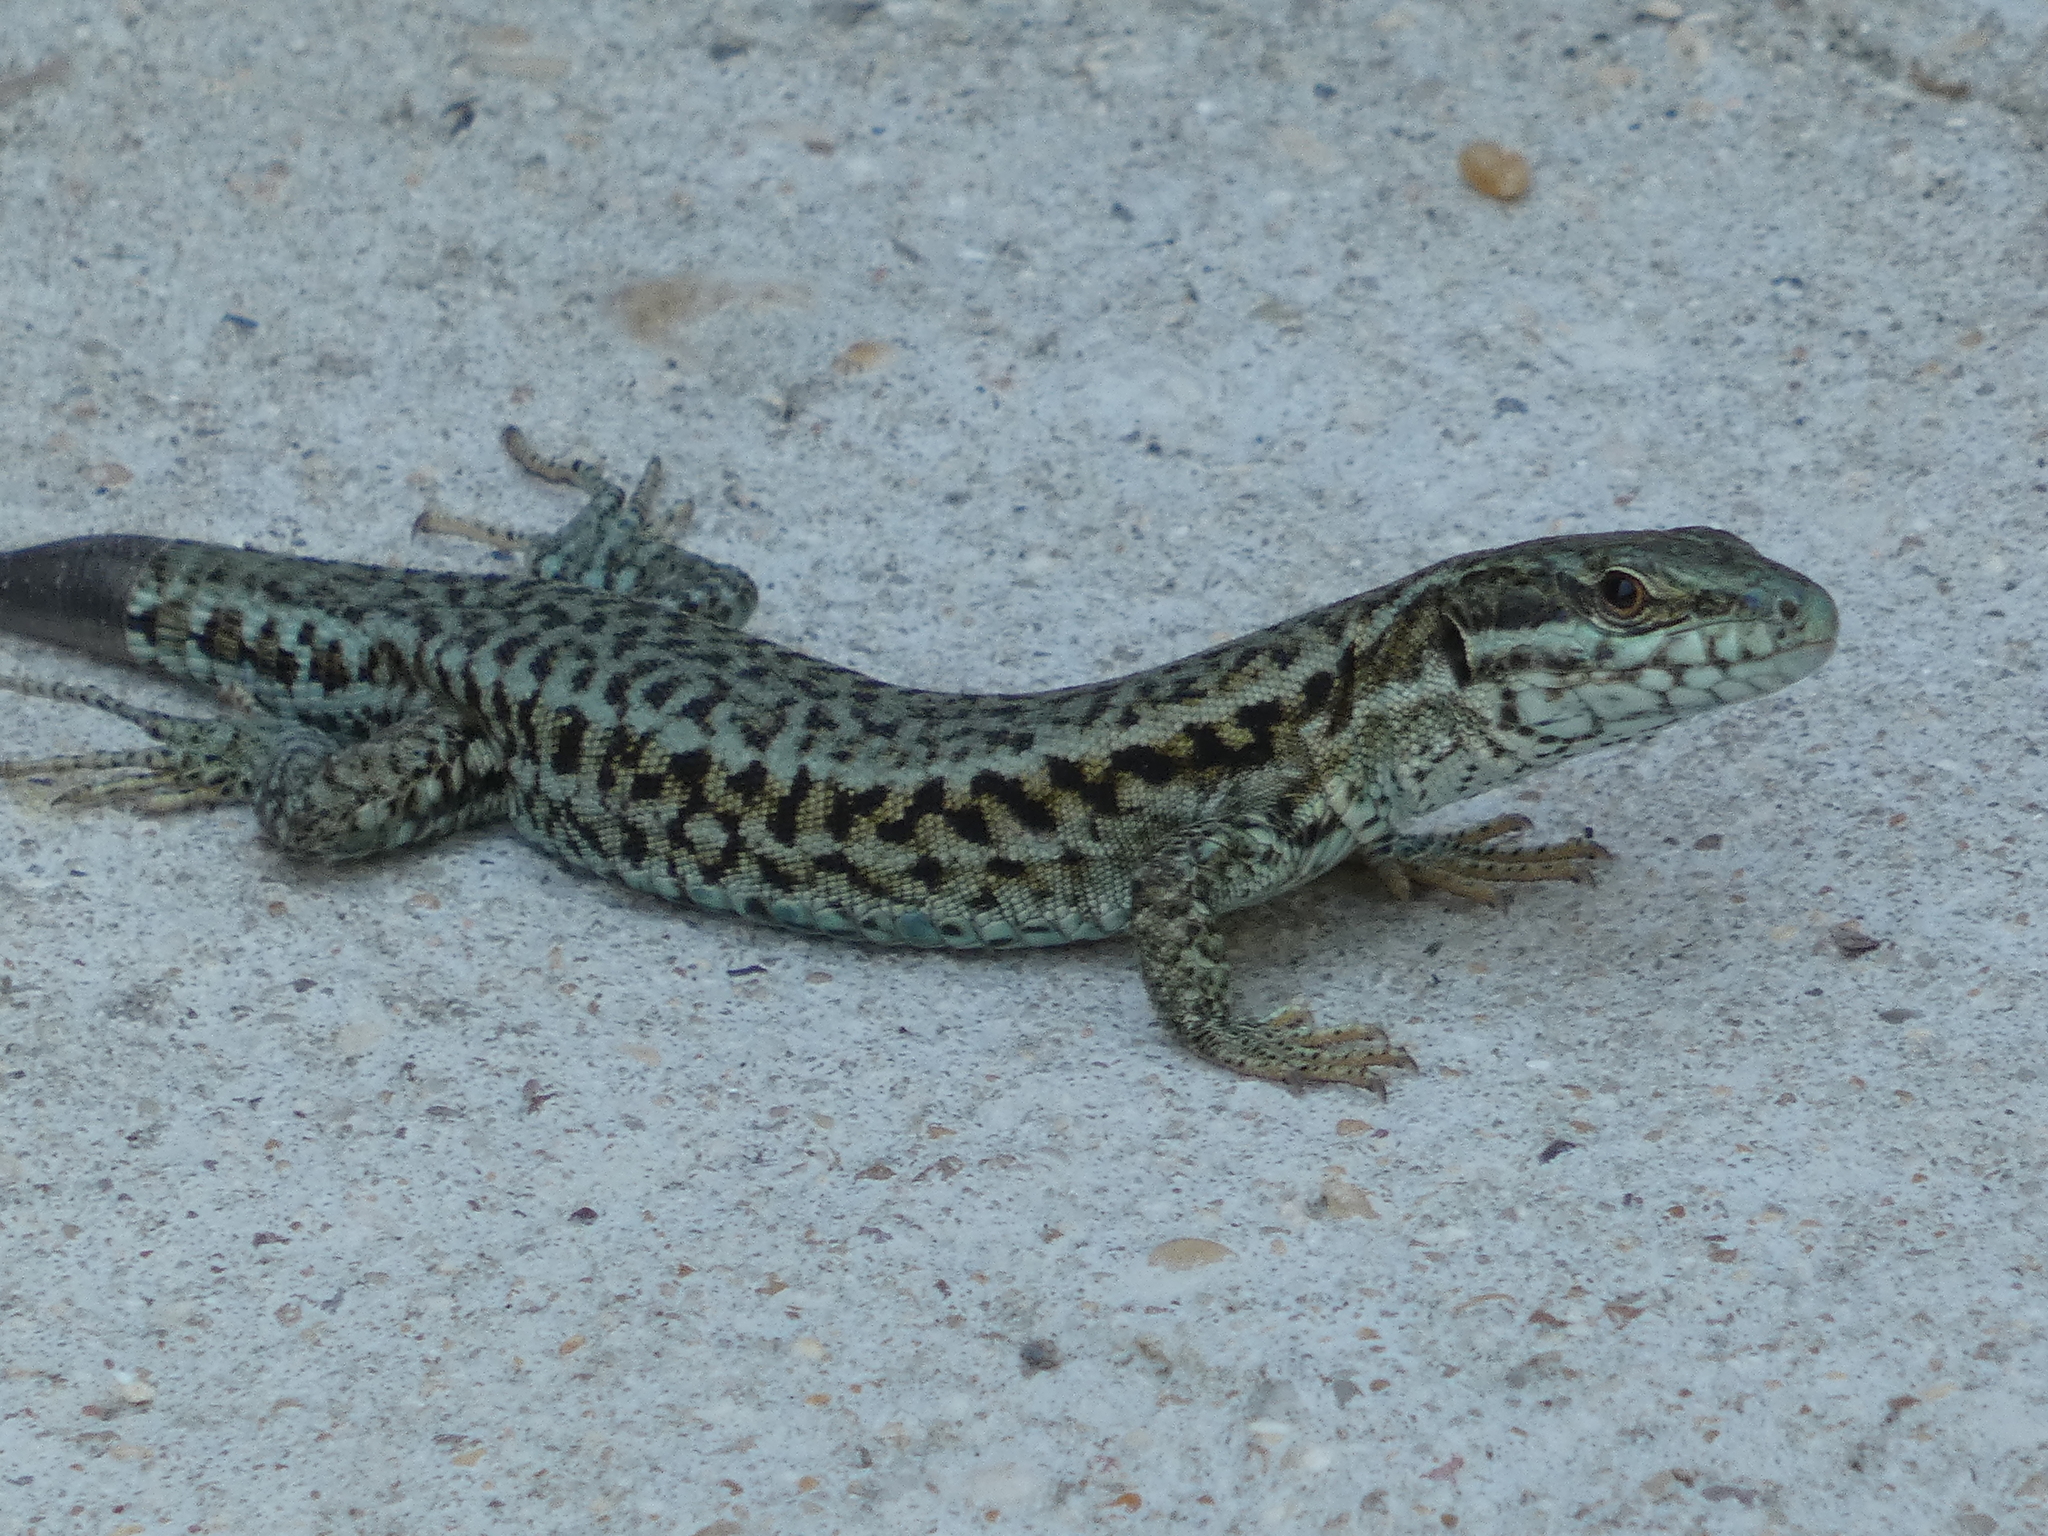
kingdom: Animalia
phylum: Chordata
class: Squamata
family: Lacertidae
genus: Podarcis
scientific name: Podarcis muralis
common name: Common wall lizard
